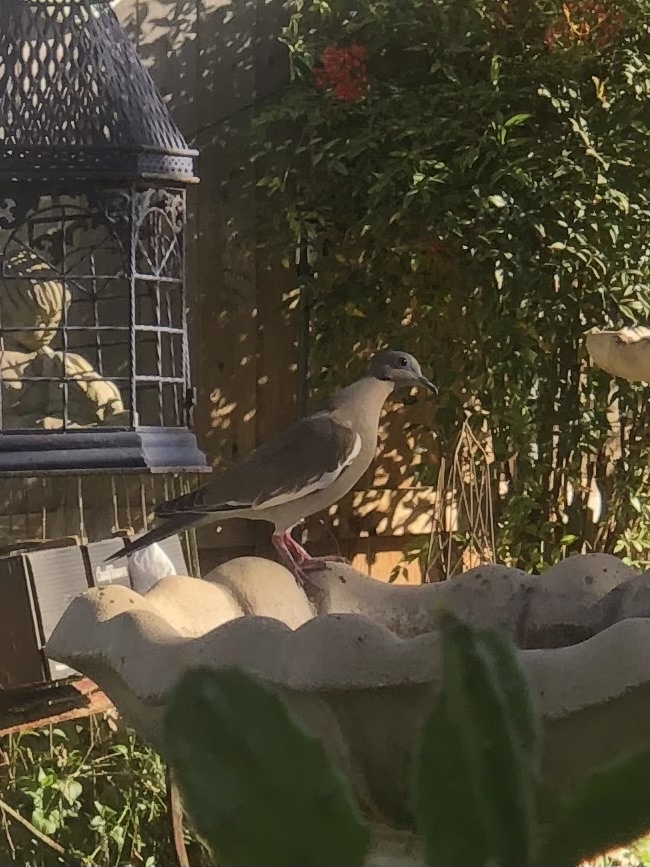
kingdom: Animalia
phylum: Chordata
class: Aves
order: Columbiformes
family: Columbidae
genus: Zenaida
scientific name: Zenaida asiatica
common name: White-winged dove
